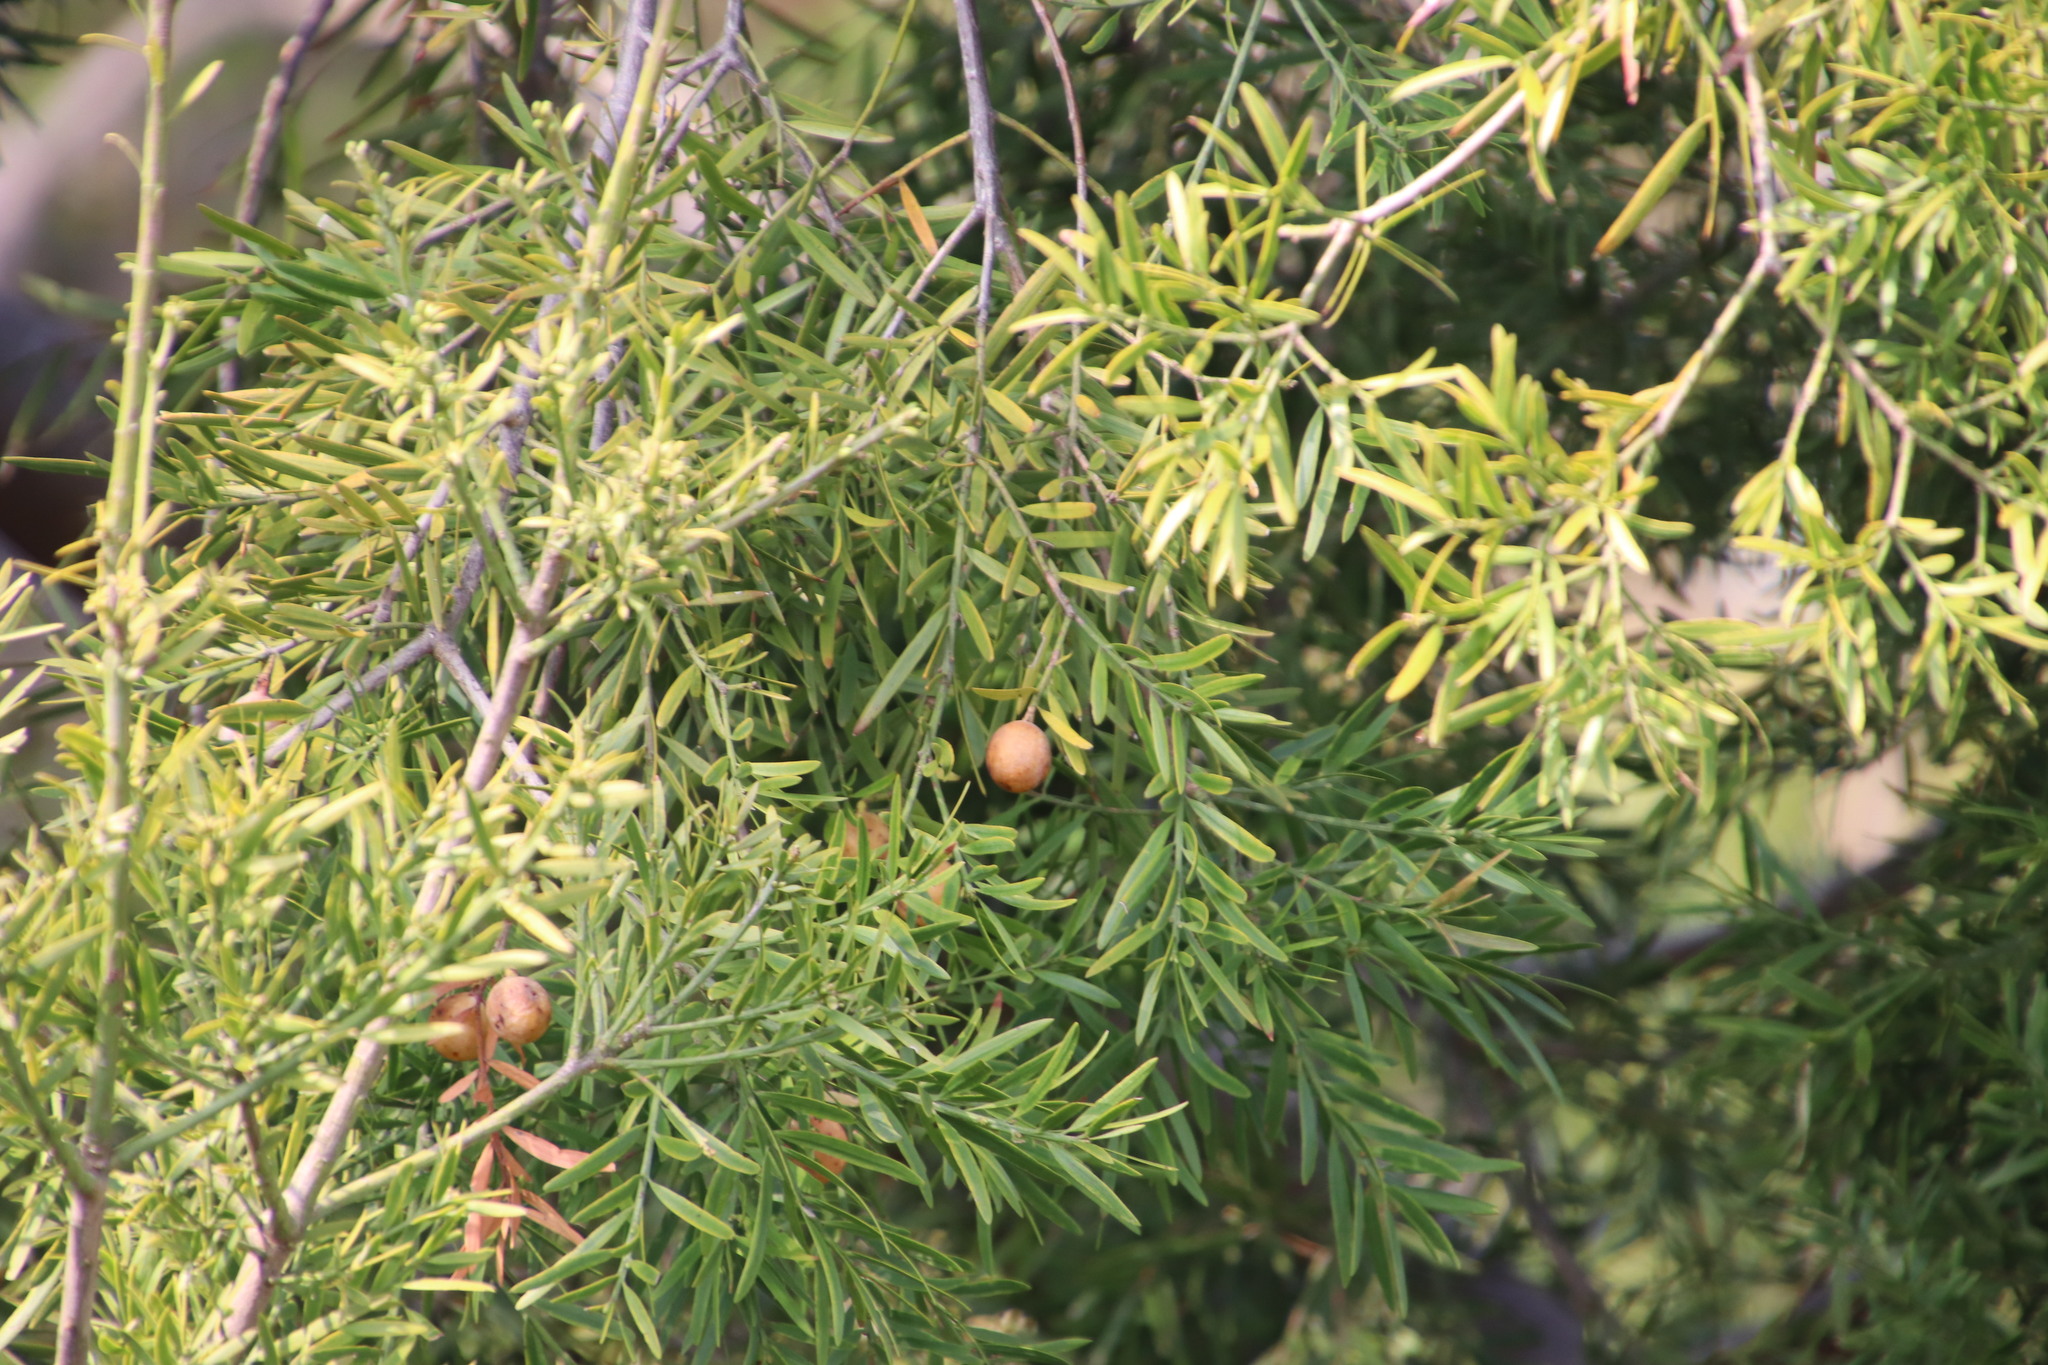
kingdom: Plantae
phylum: Tracheophyta
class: Pinopsida
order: Pinales
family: Podocarpaceae
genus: Afrocarpus
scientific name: Afrocarpus falcatus
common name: Bastard yellowwood
